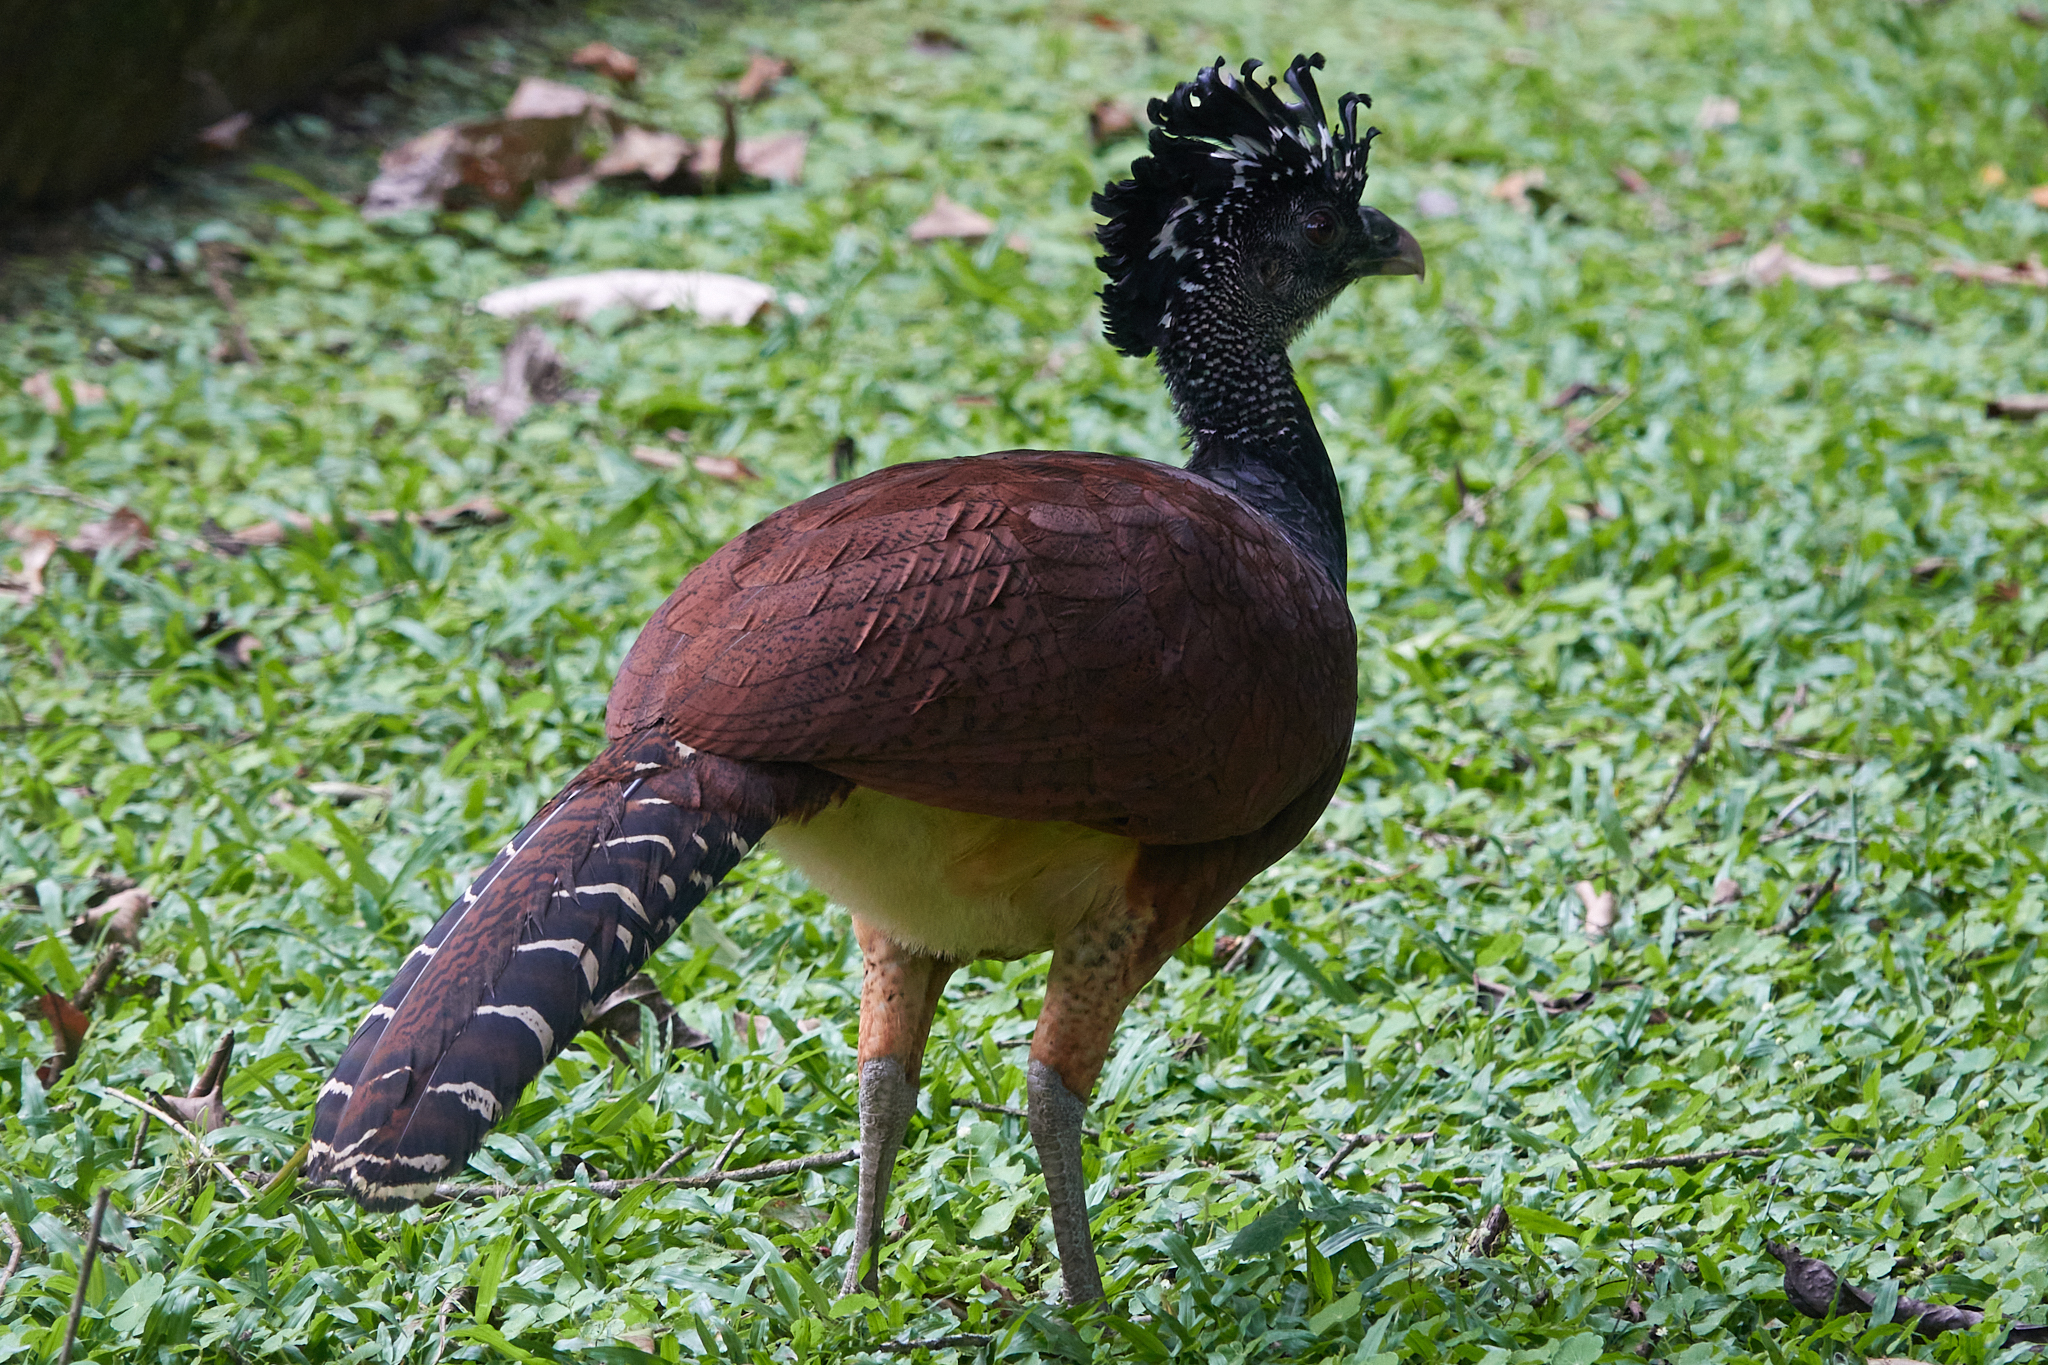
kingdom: Animalia
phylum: Chordata
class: Aves
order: Galliformes
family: Cracidae
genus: Crax
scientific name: Crax rubra
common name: Great curassow
